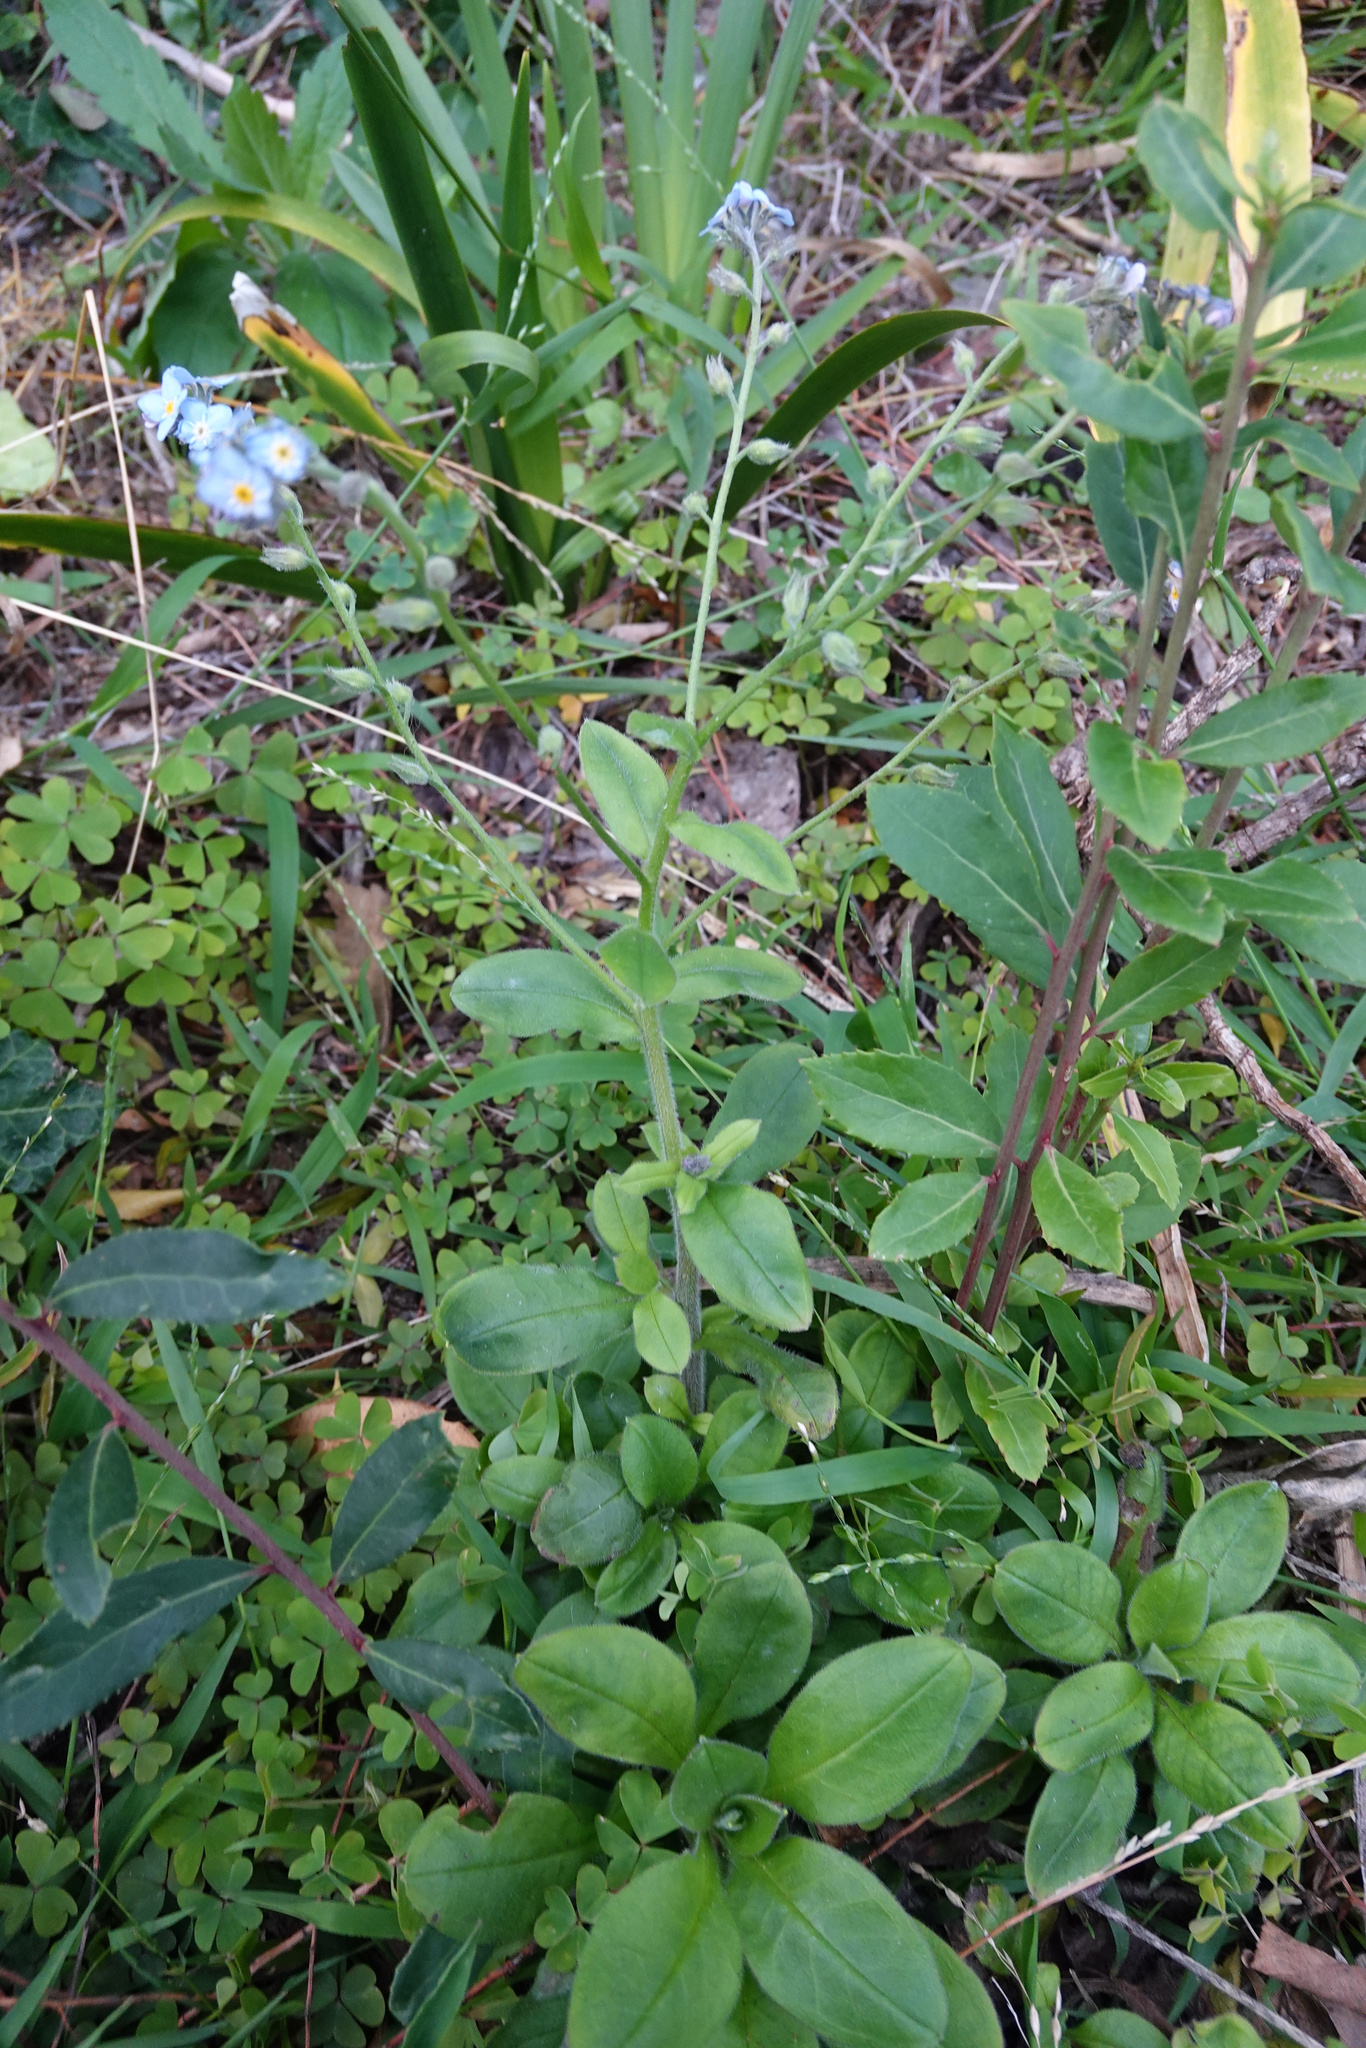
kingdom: Plantae
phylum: Tracheophyta
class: Magnoliopsida
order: Boraginales
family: Boraginaceae
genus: Myosotis
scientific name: Myosotis sylvatica
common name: Wood forget-me-not
